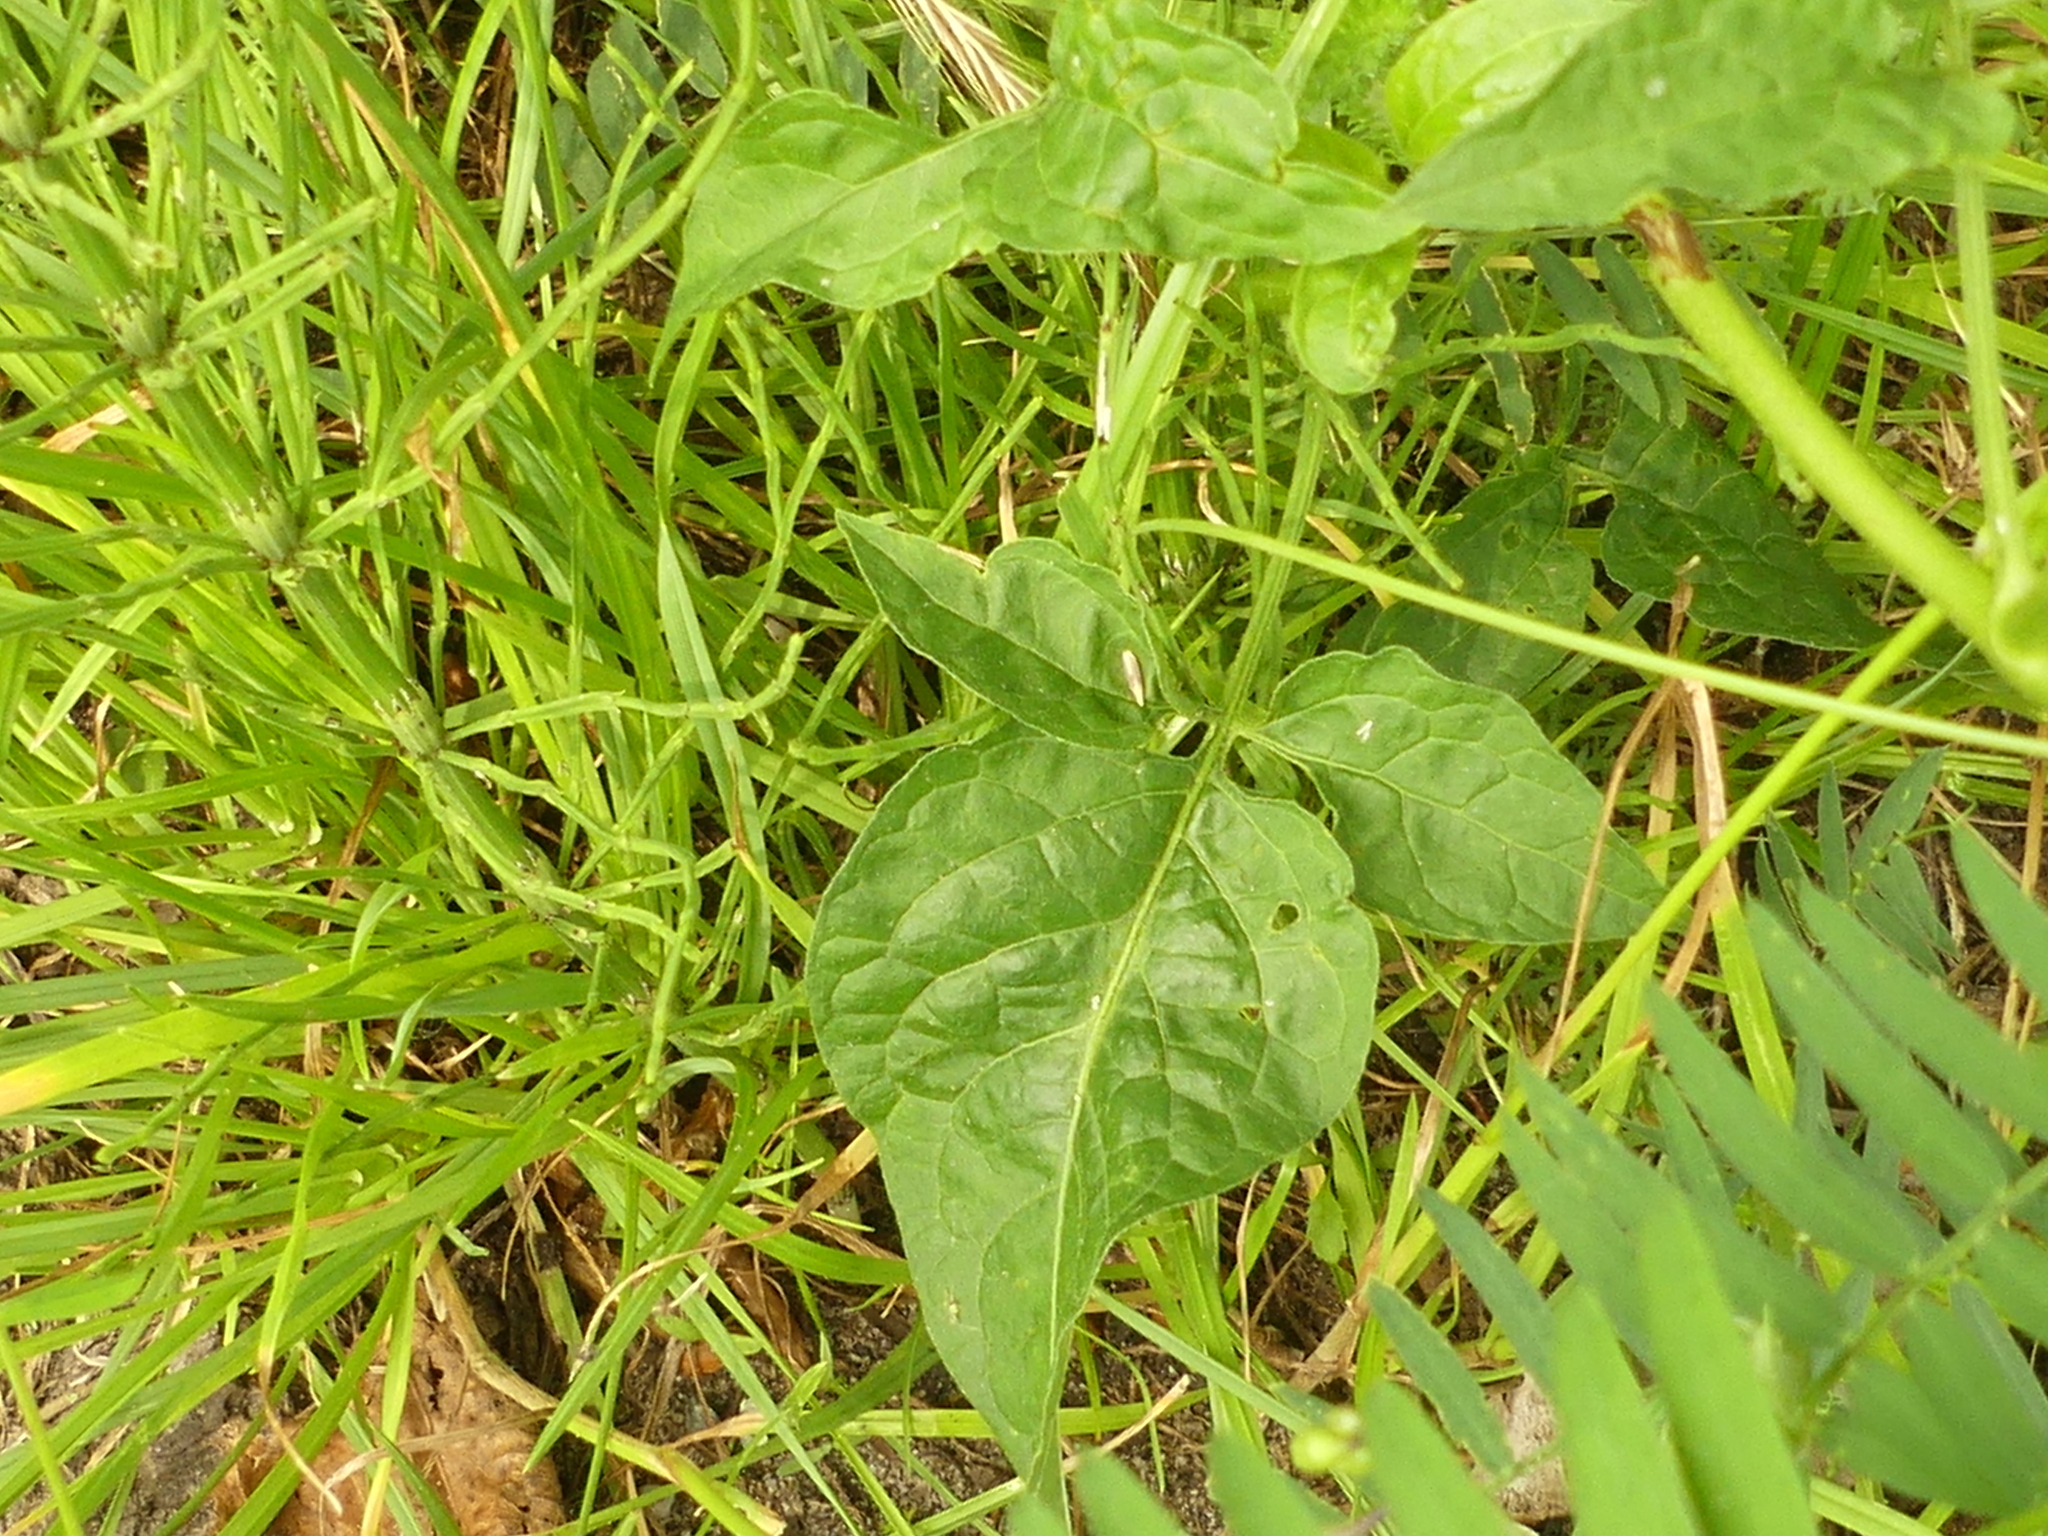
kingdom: Plantae
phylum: Tracheophyta
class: Magnoliopsida
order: Solanales
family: Solanaceae
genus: Solanum
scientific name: Solanum dulcamara
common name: Climbing nightshade
